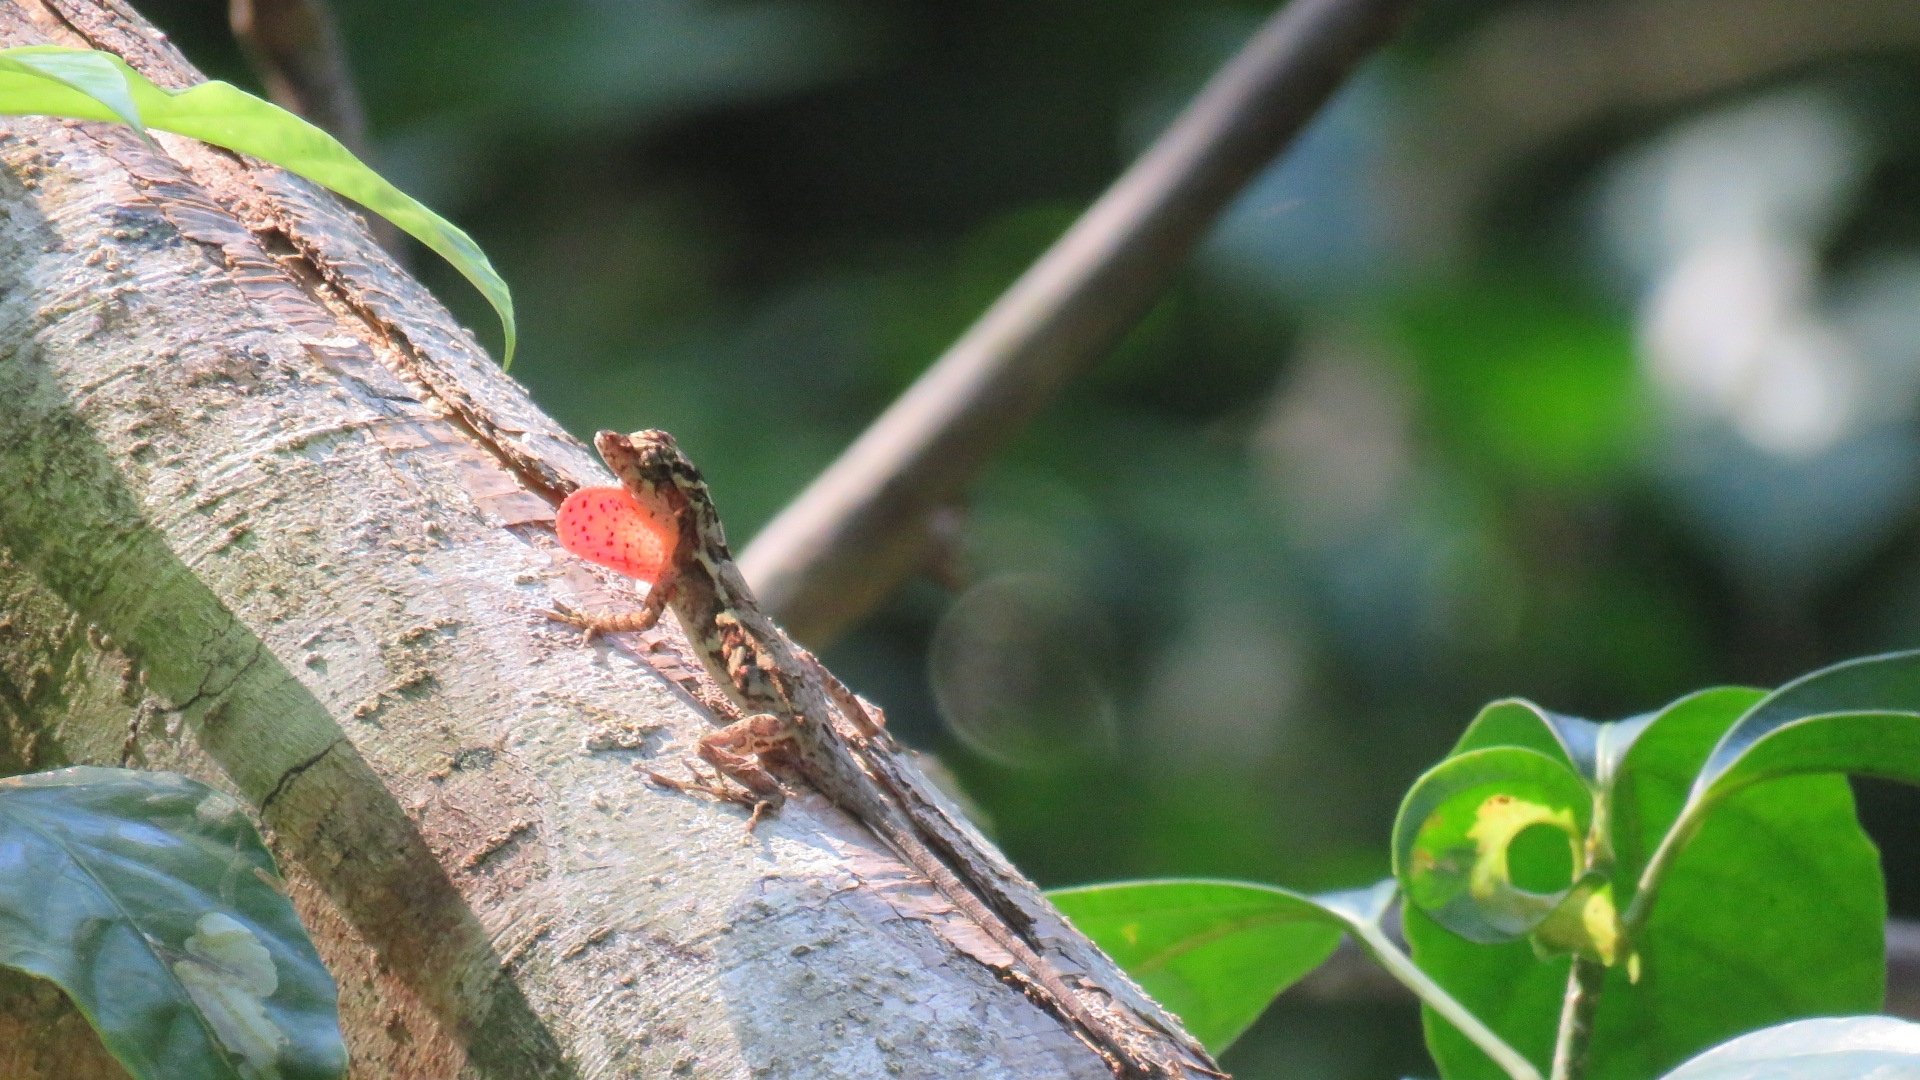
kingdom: Animalia
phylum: Chordata
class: Squamata
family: Dactyloidae
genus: Anolis
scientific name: Anolis lemurinus
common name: Ghost anole
